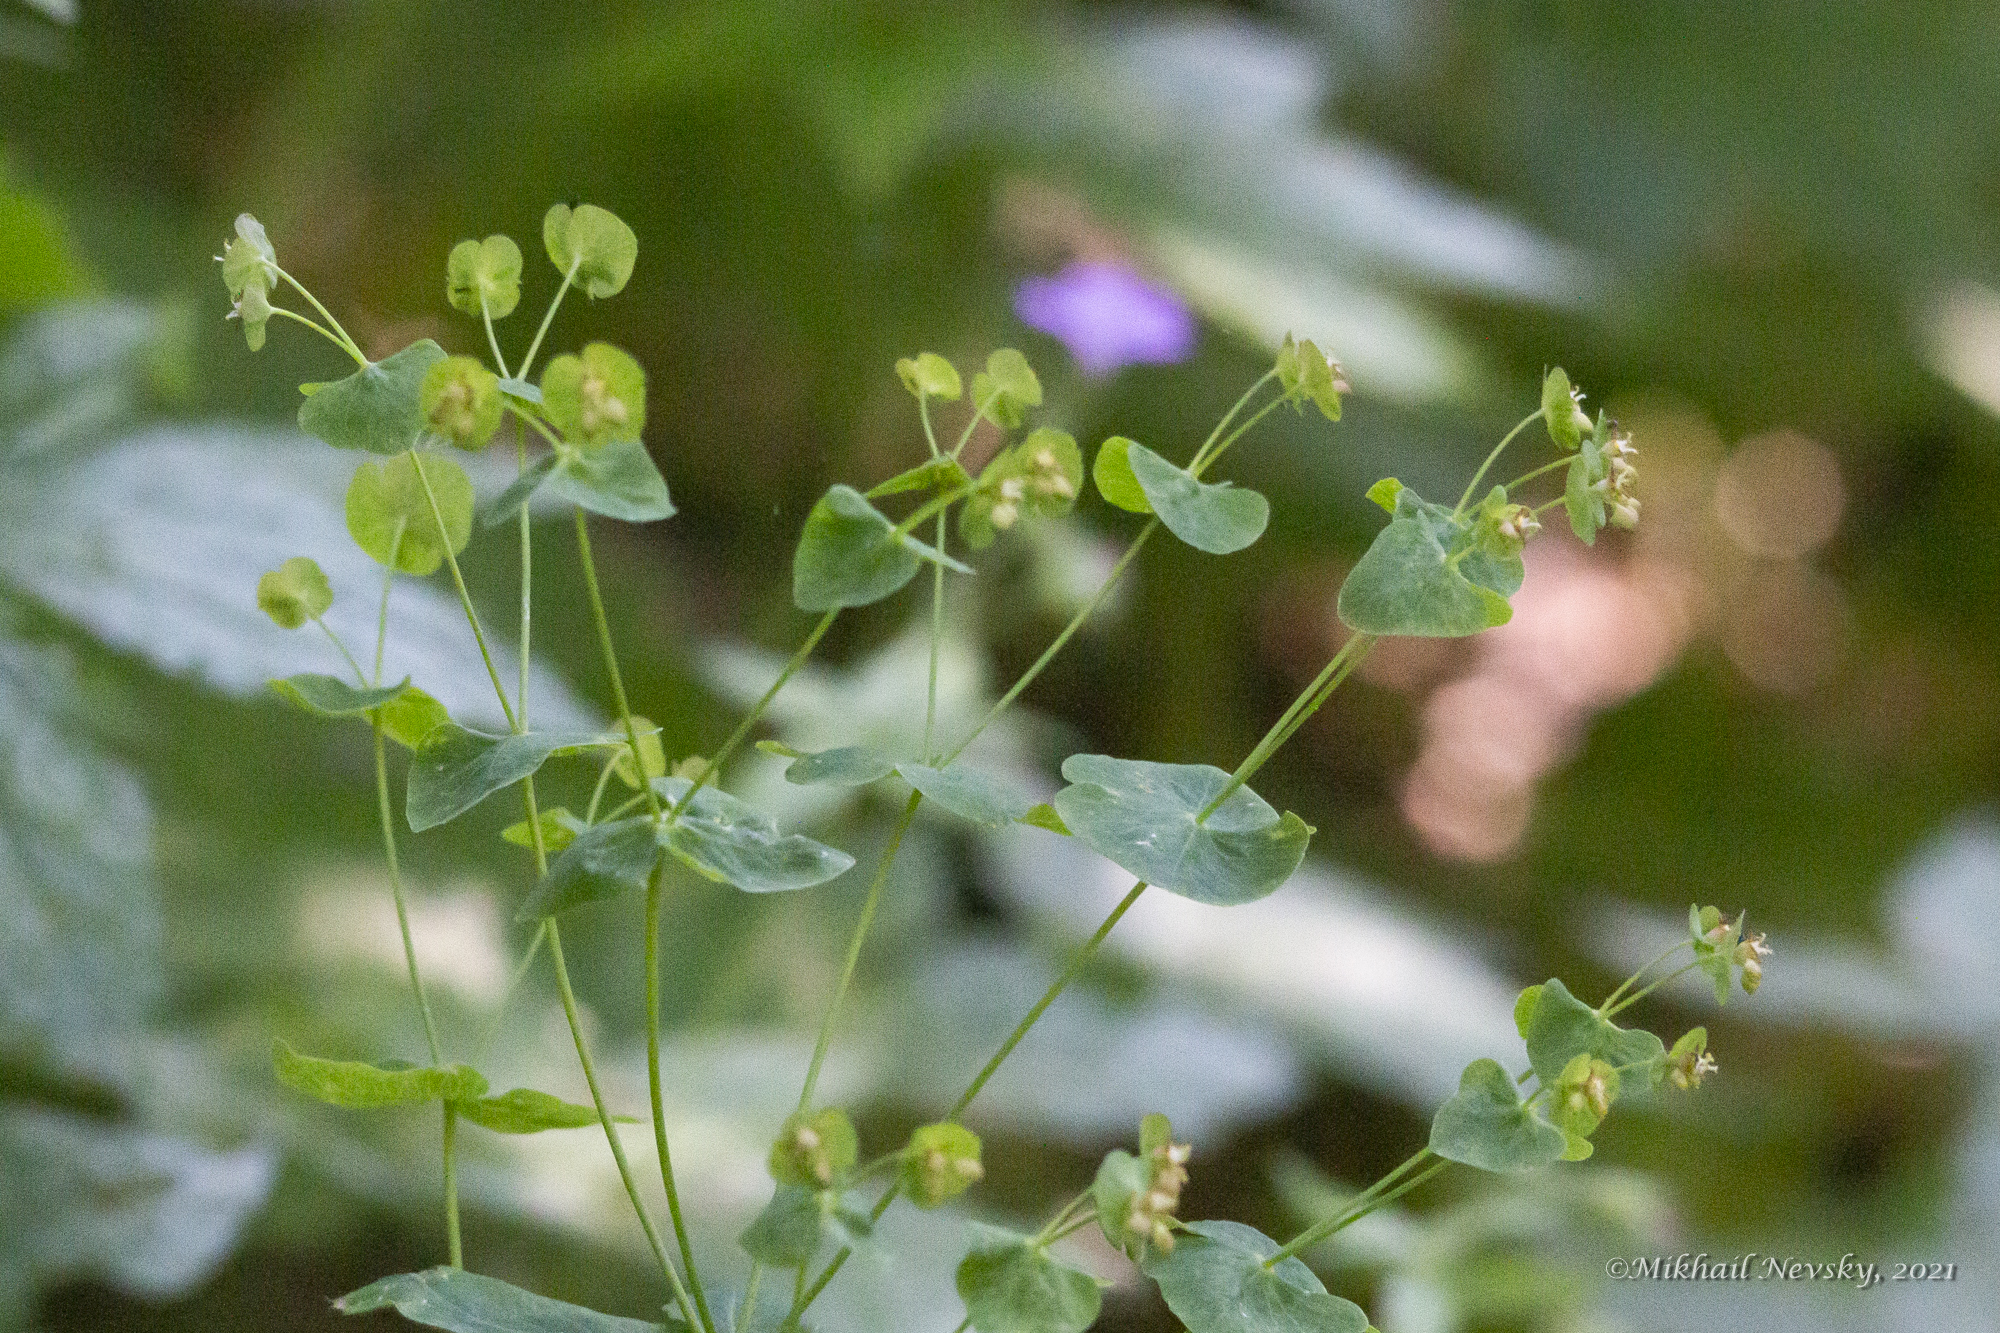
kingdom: Plantae
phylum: Tracheophyta
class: Magnoliopsida
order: Malpighiales
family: Euphorbiaceae
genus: Euphorbia
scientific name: Euphorbia oblongifolia
